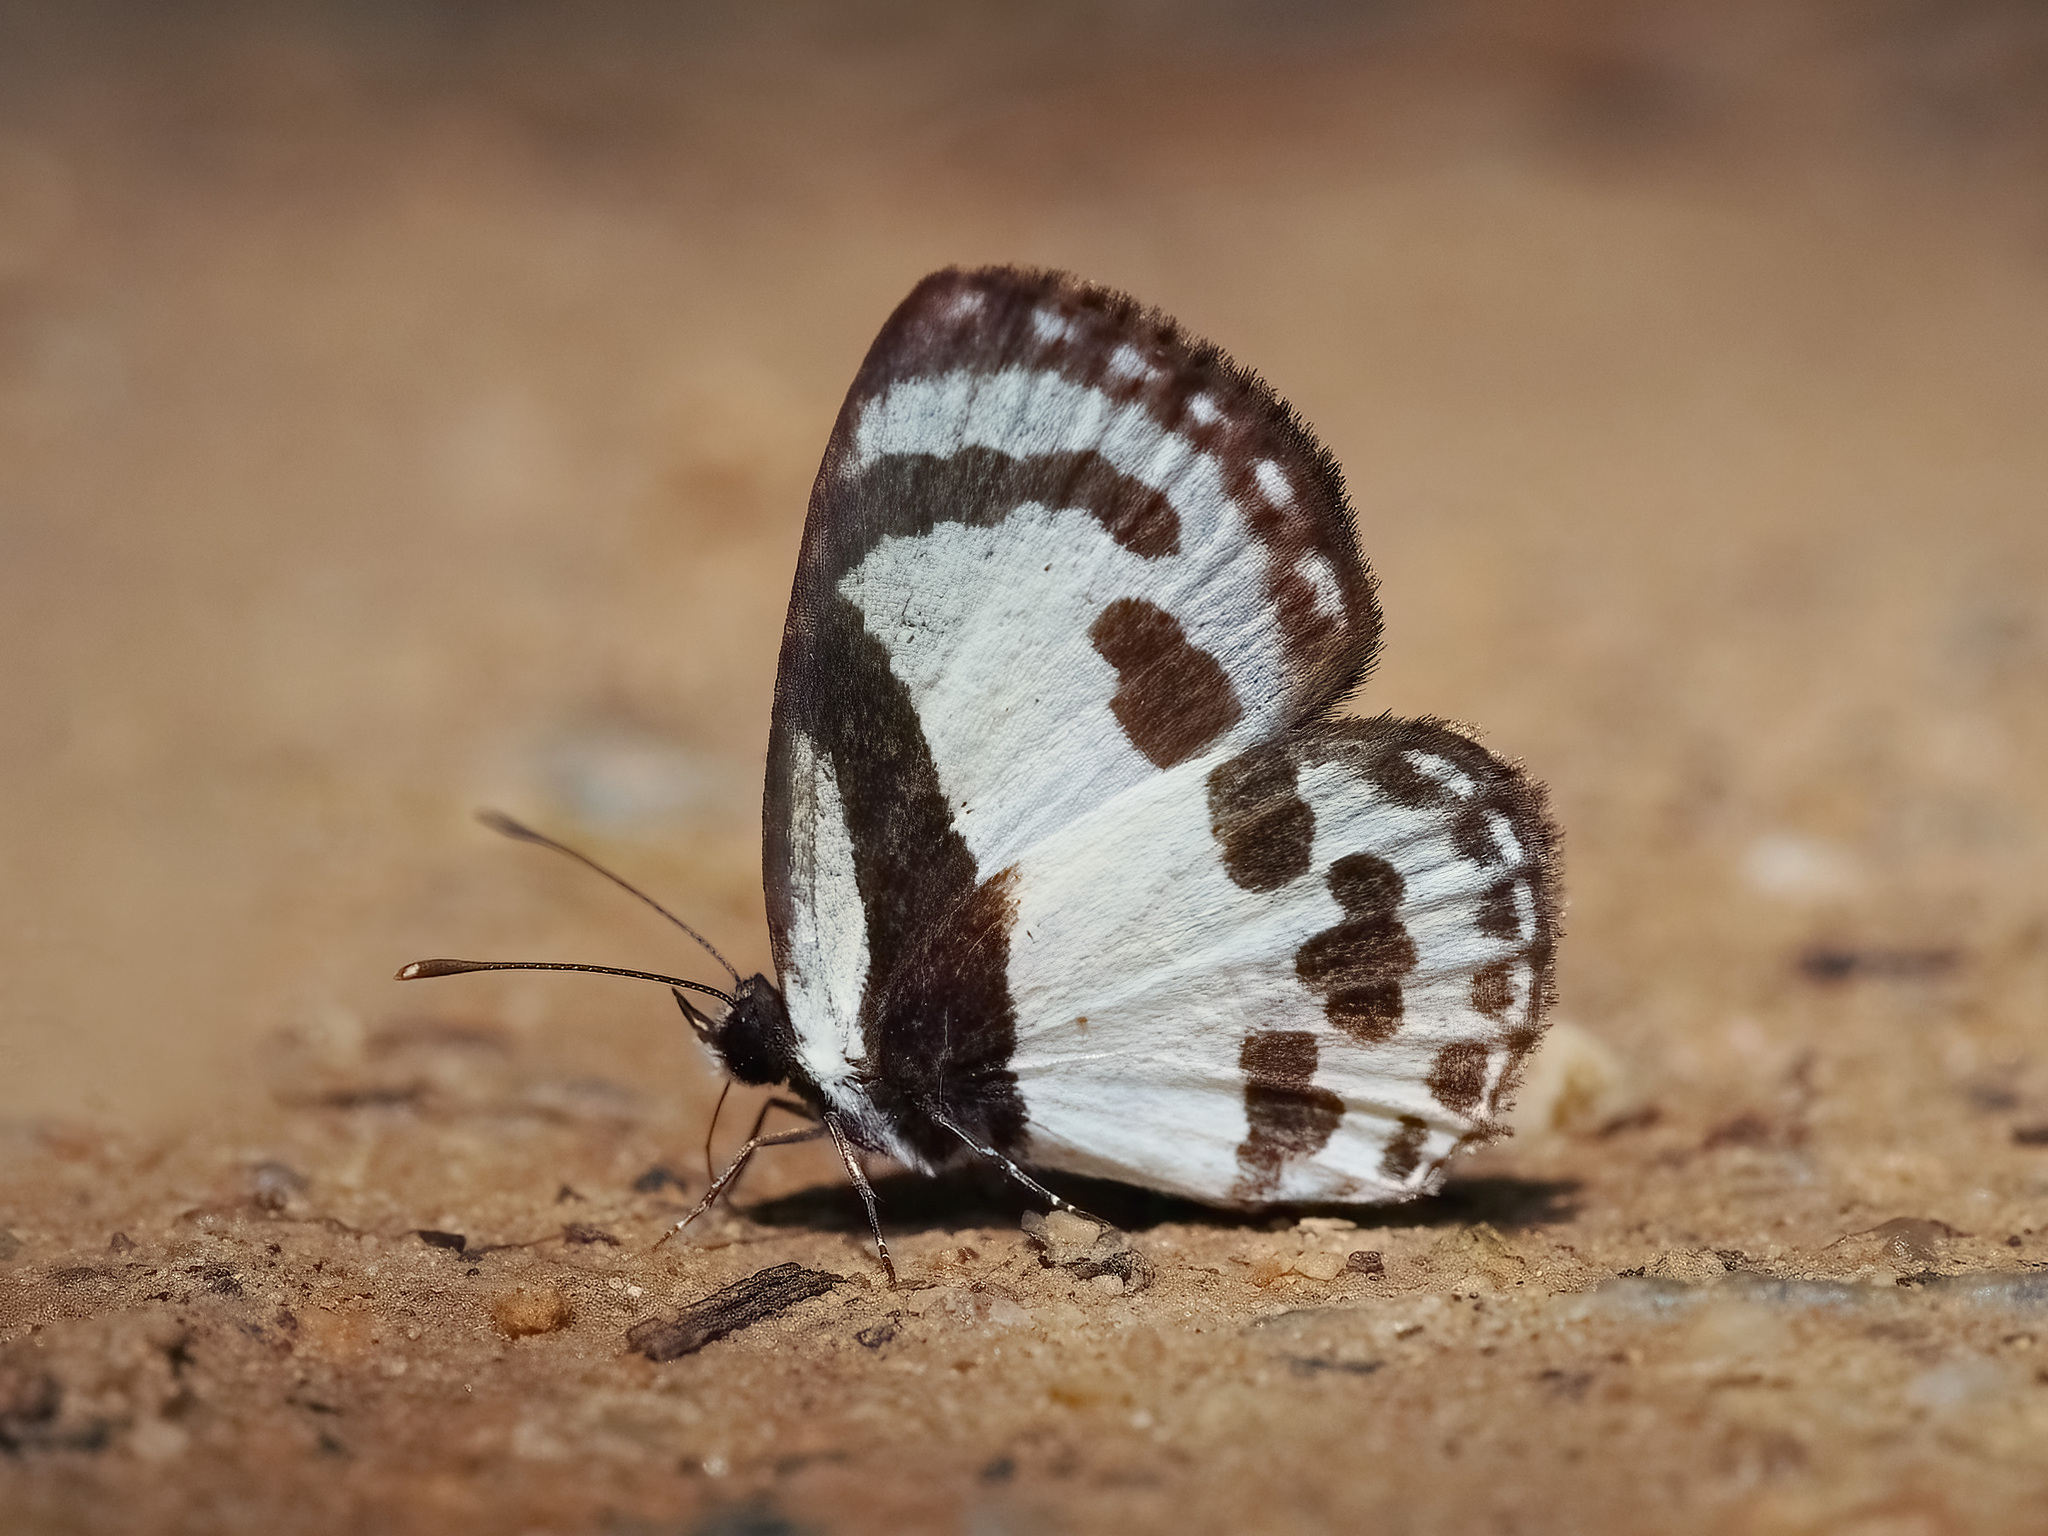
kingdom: Animalia
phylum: Arthropoda
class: Insecta
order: Lepidoptera
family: Lycaenidae
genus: Caleta
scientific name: Caleta roxus
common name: Straight pierrot
